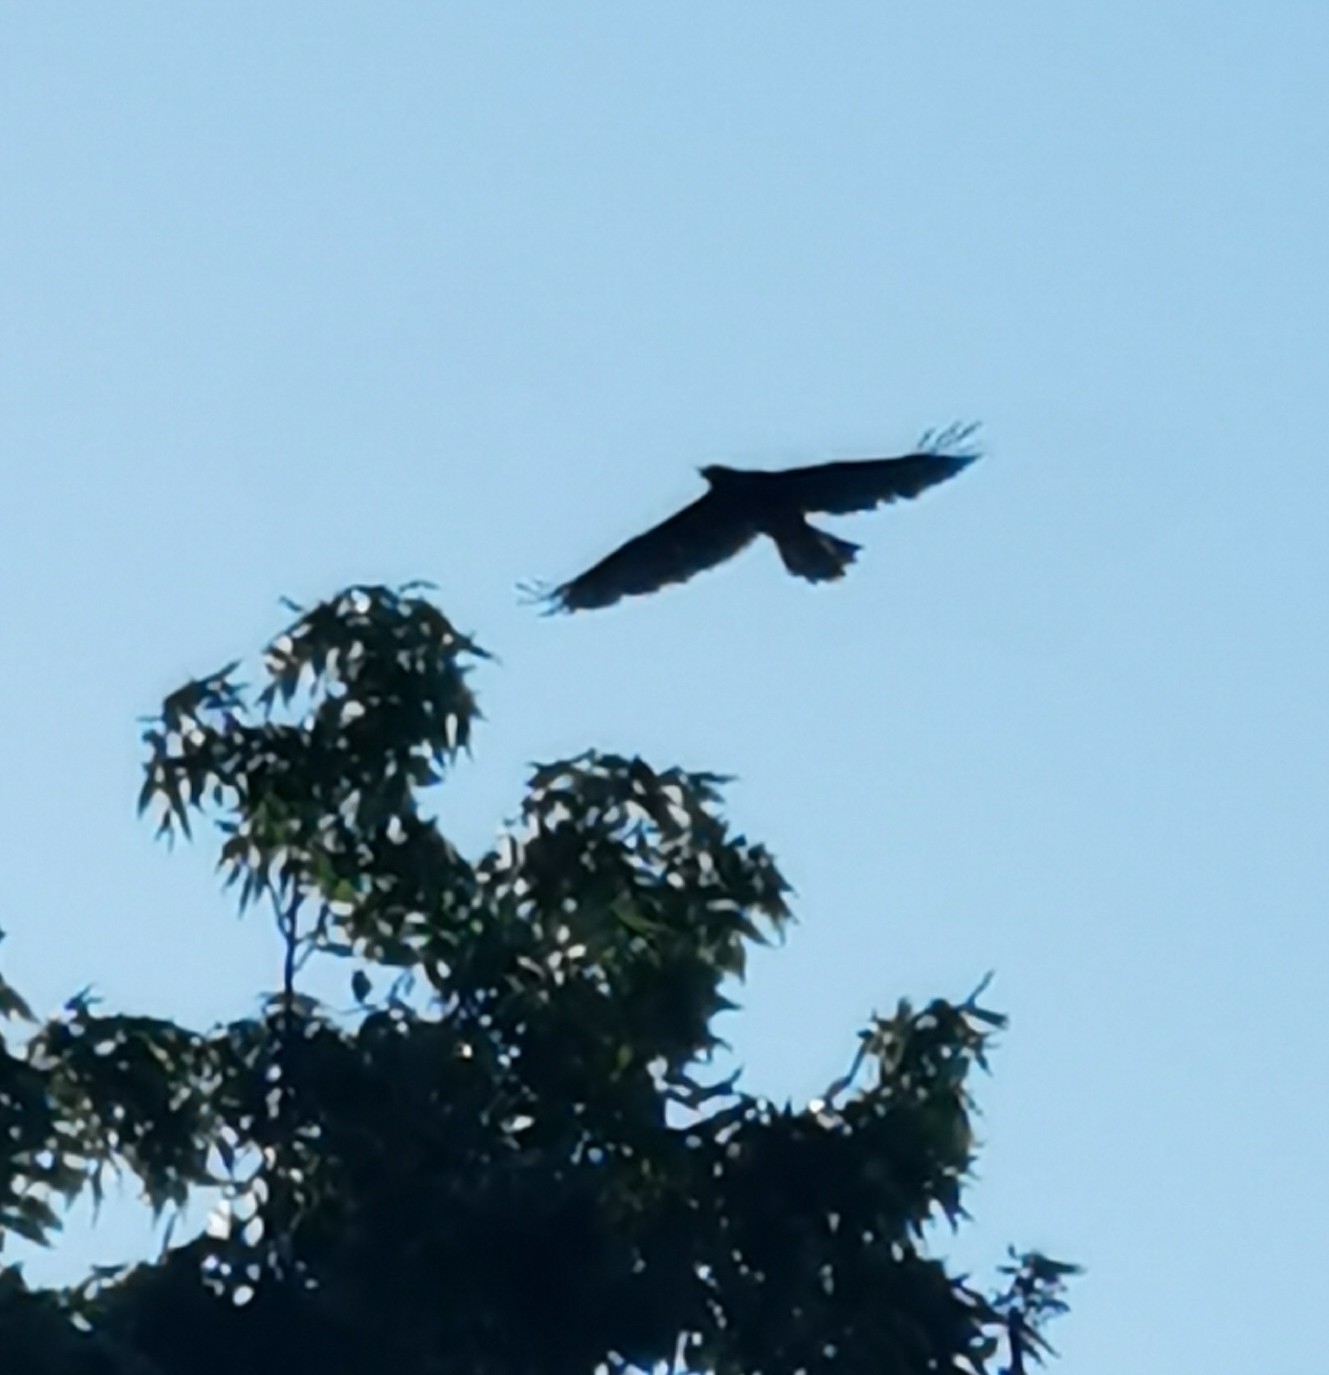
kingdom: Animalia
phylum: Chordata
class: Aves
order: Accipitriformes
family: Accipitridae
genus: Aquila
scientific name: Aquila pomarina
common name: Lesser spotted eagle
